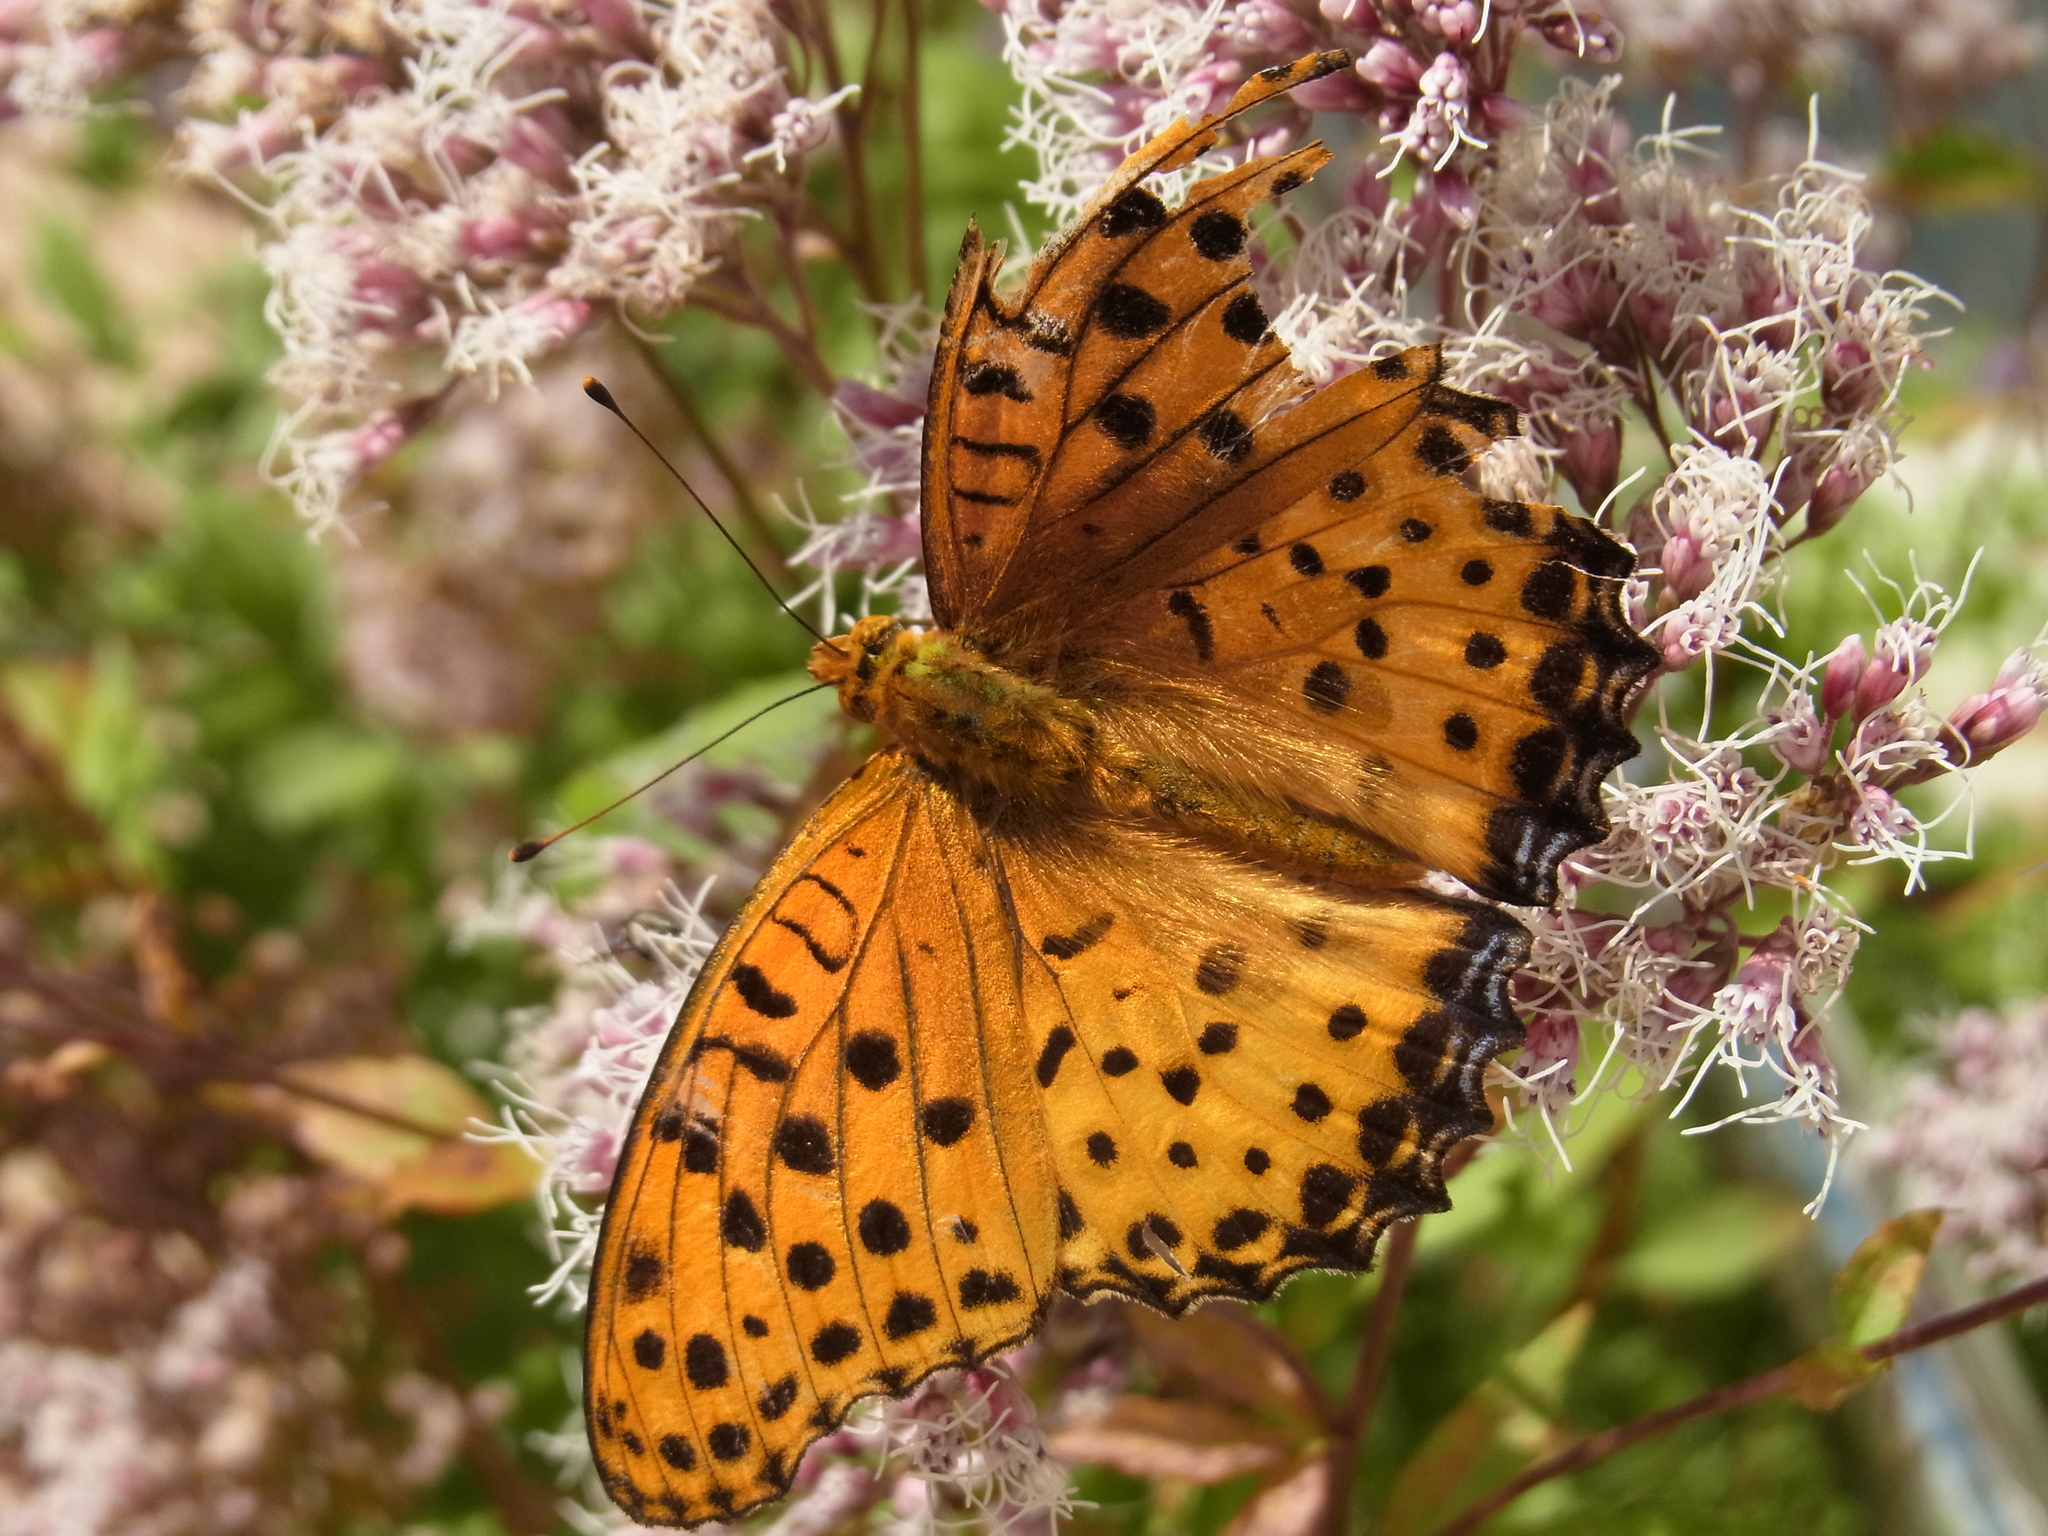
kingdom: Animalia
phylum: Arthropoda
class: Insecta
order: Lepidoptera
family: Nymphalidae
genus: Argynnis
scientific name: Argynnis hyperbius
